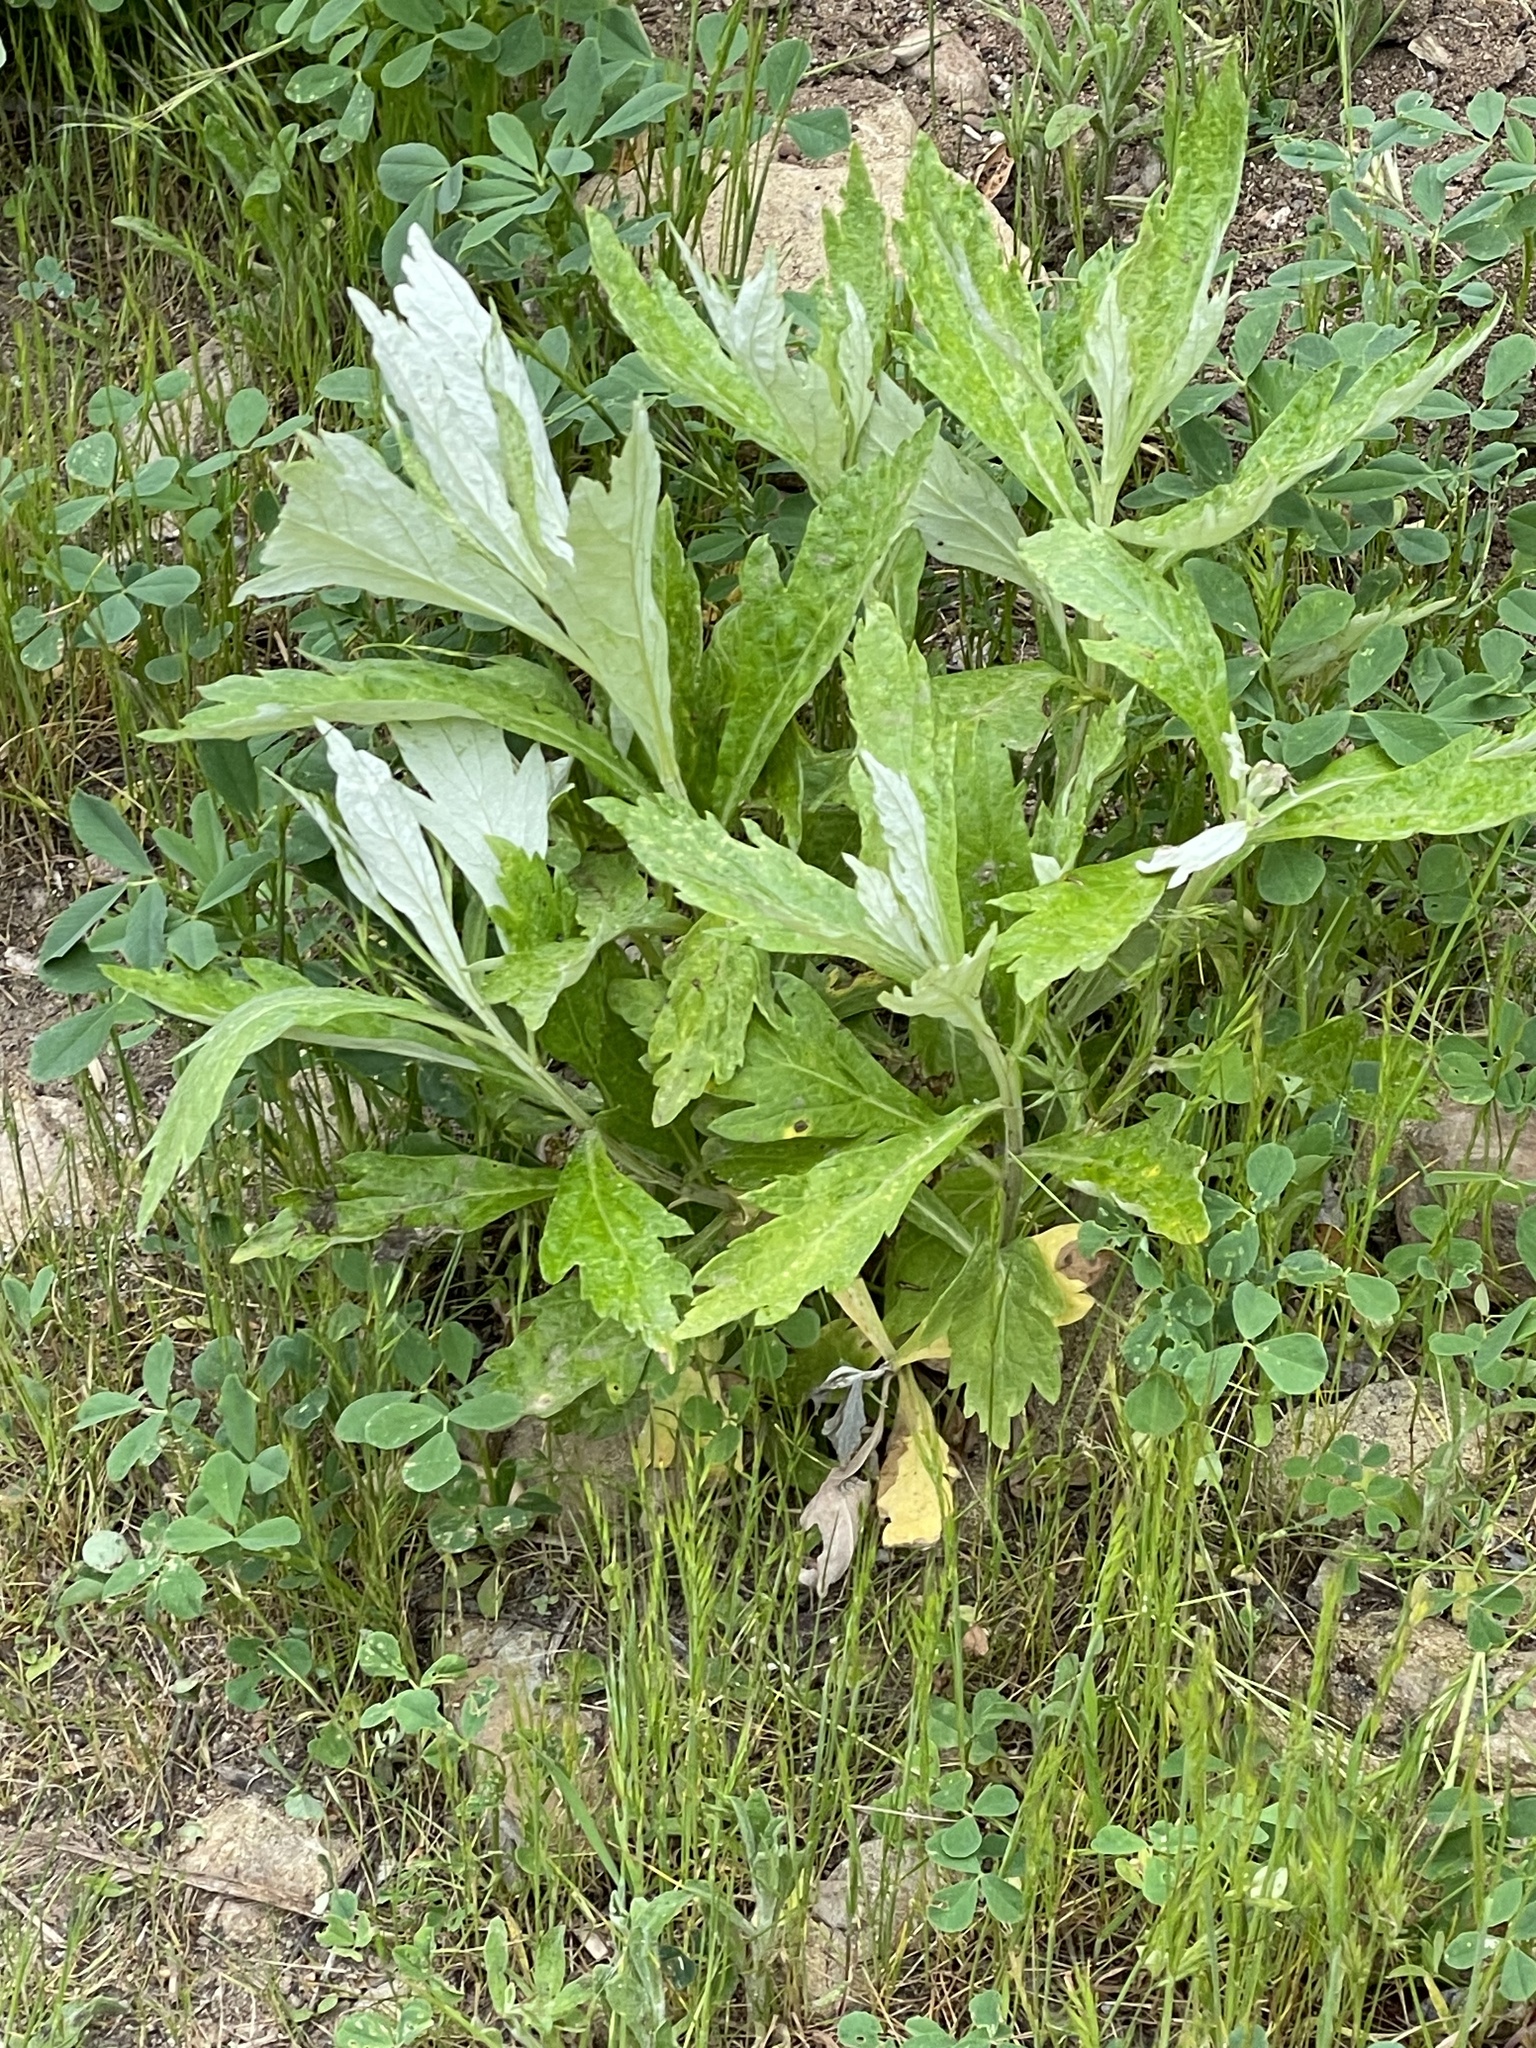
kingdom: Plantae
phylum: Tracheophyta
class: Magnoliopsida
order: Asterales
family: Asteraceae
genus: Artemisia
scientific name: Artemisia douglasiana
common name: Northwest mugwort
